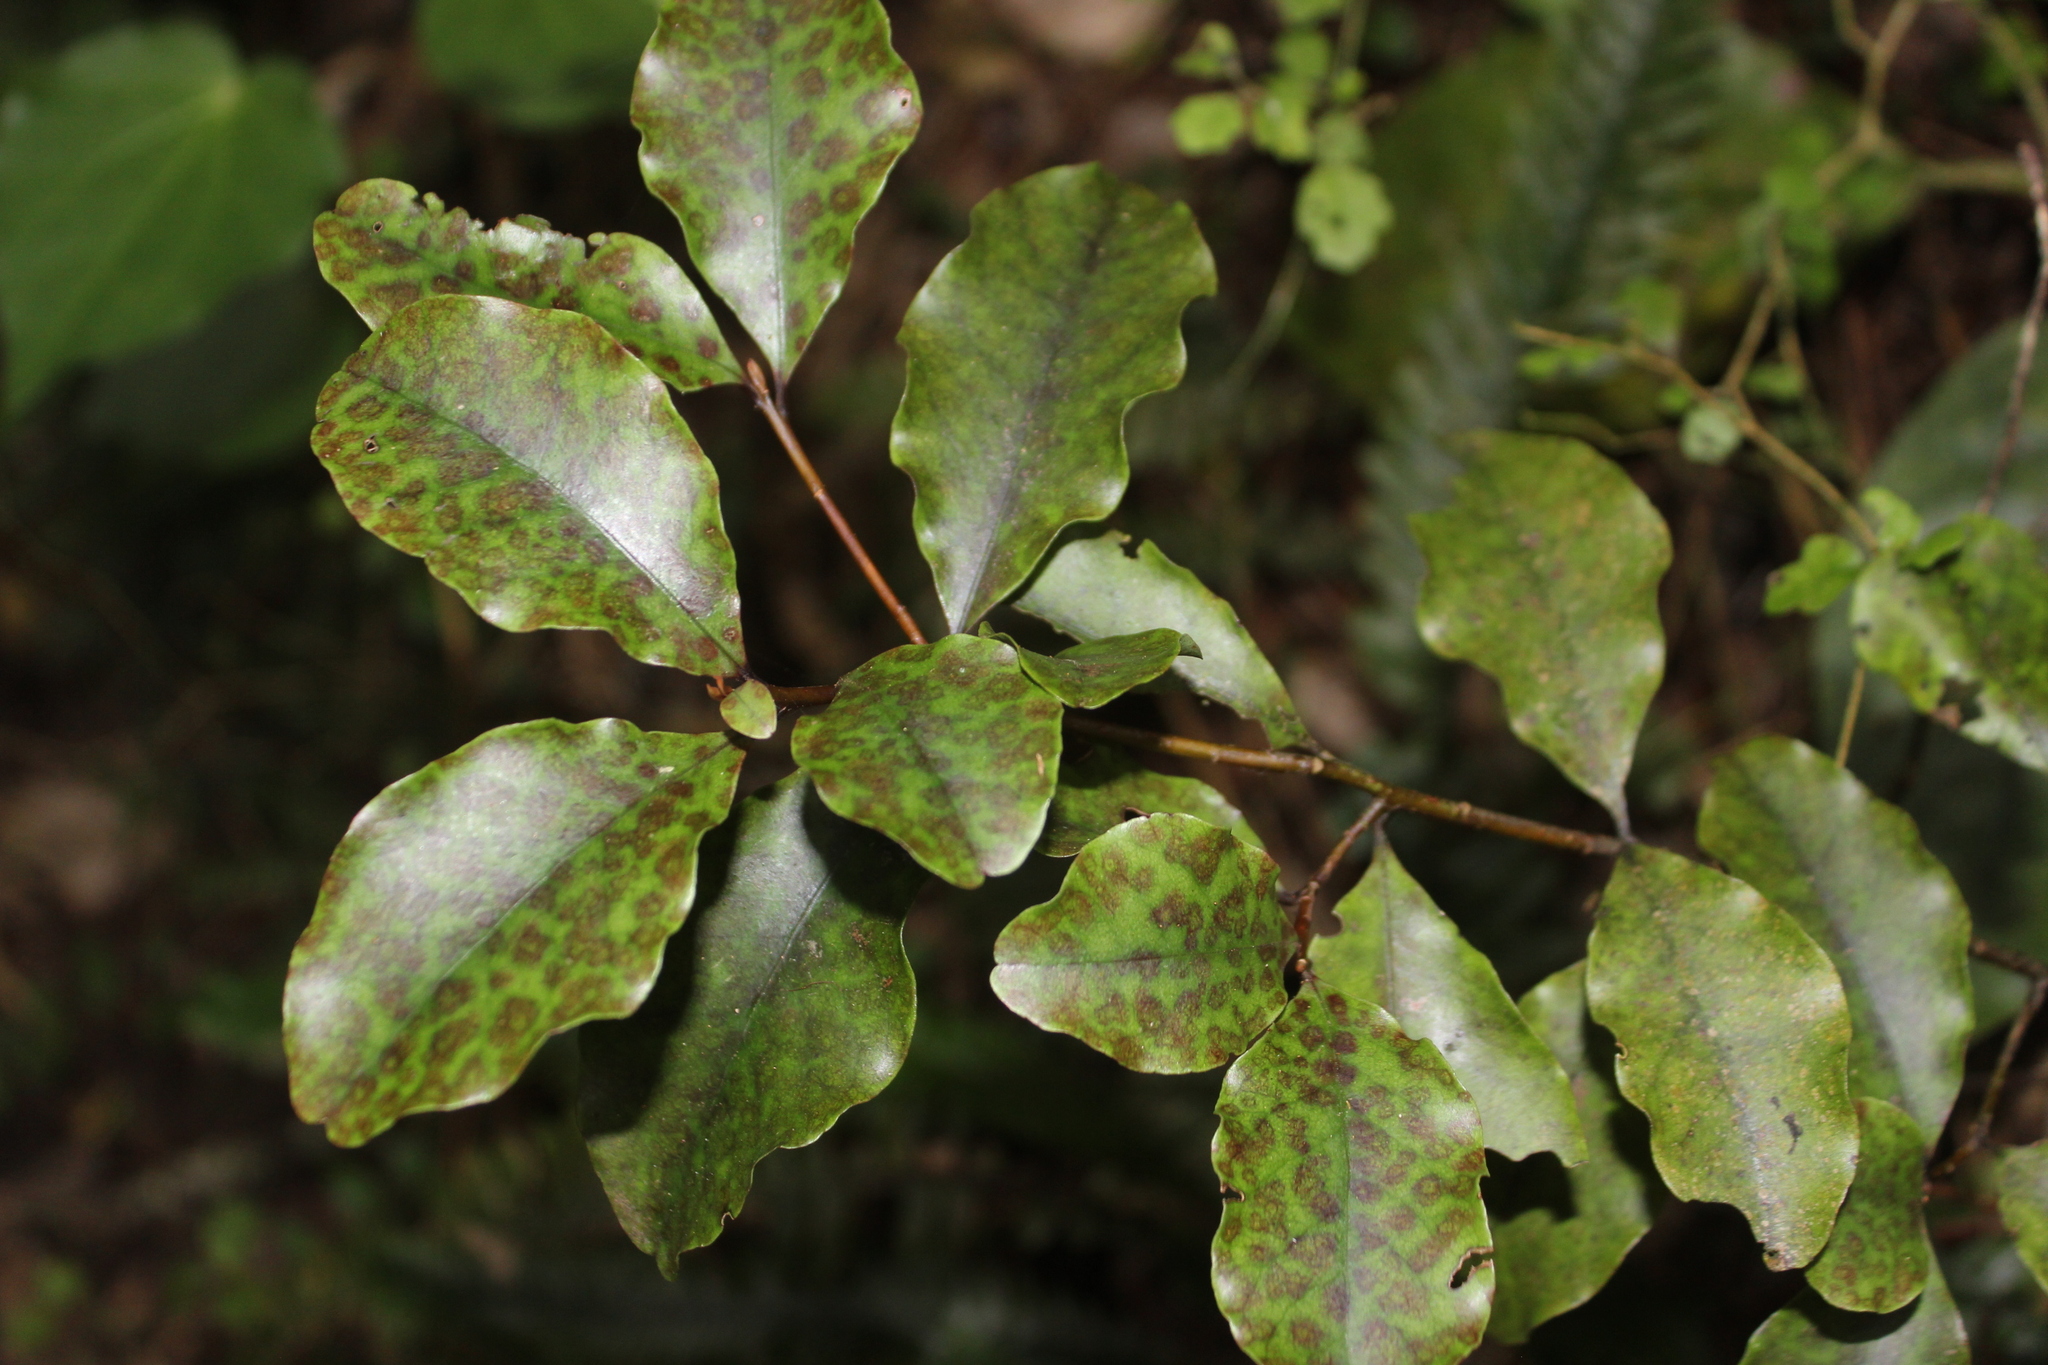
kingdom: Plantae
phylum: Tracheophyta
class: Magnoliopsida
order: Ericales
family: Primulaceae
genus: Myrsine
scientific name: Myrsine australis
